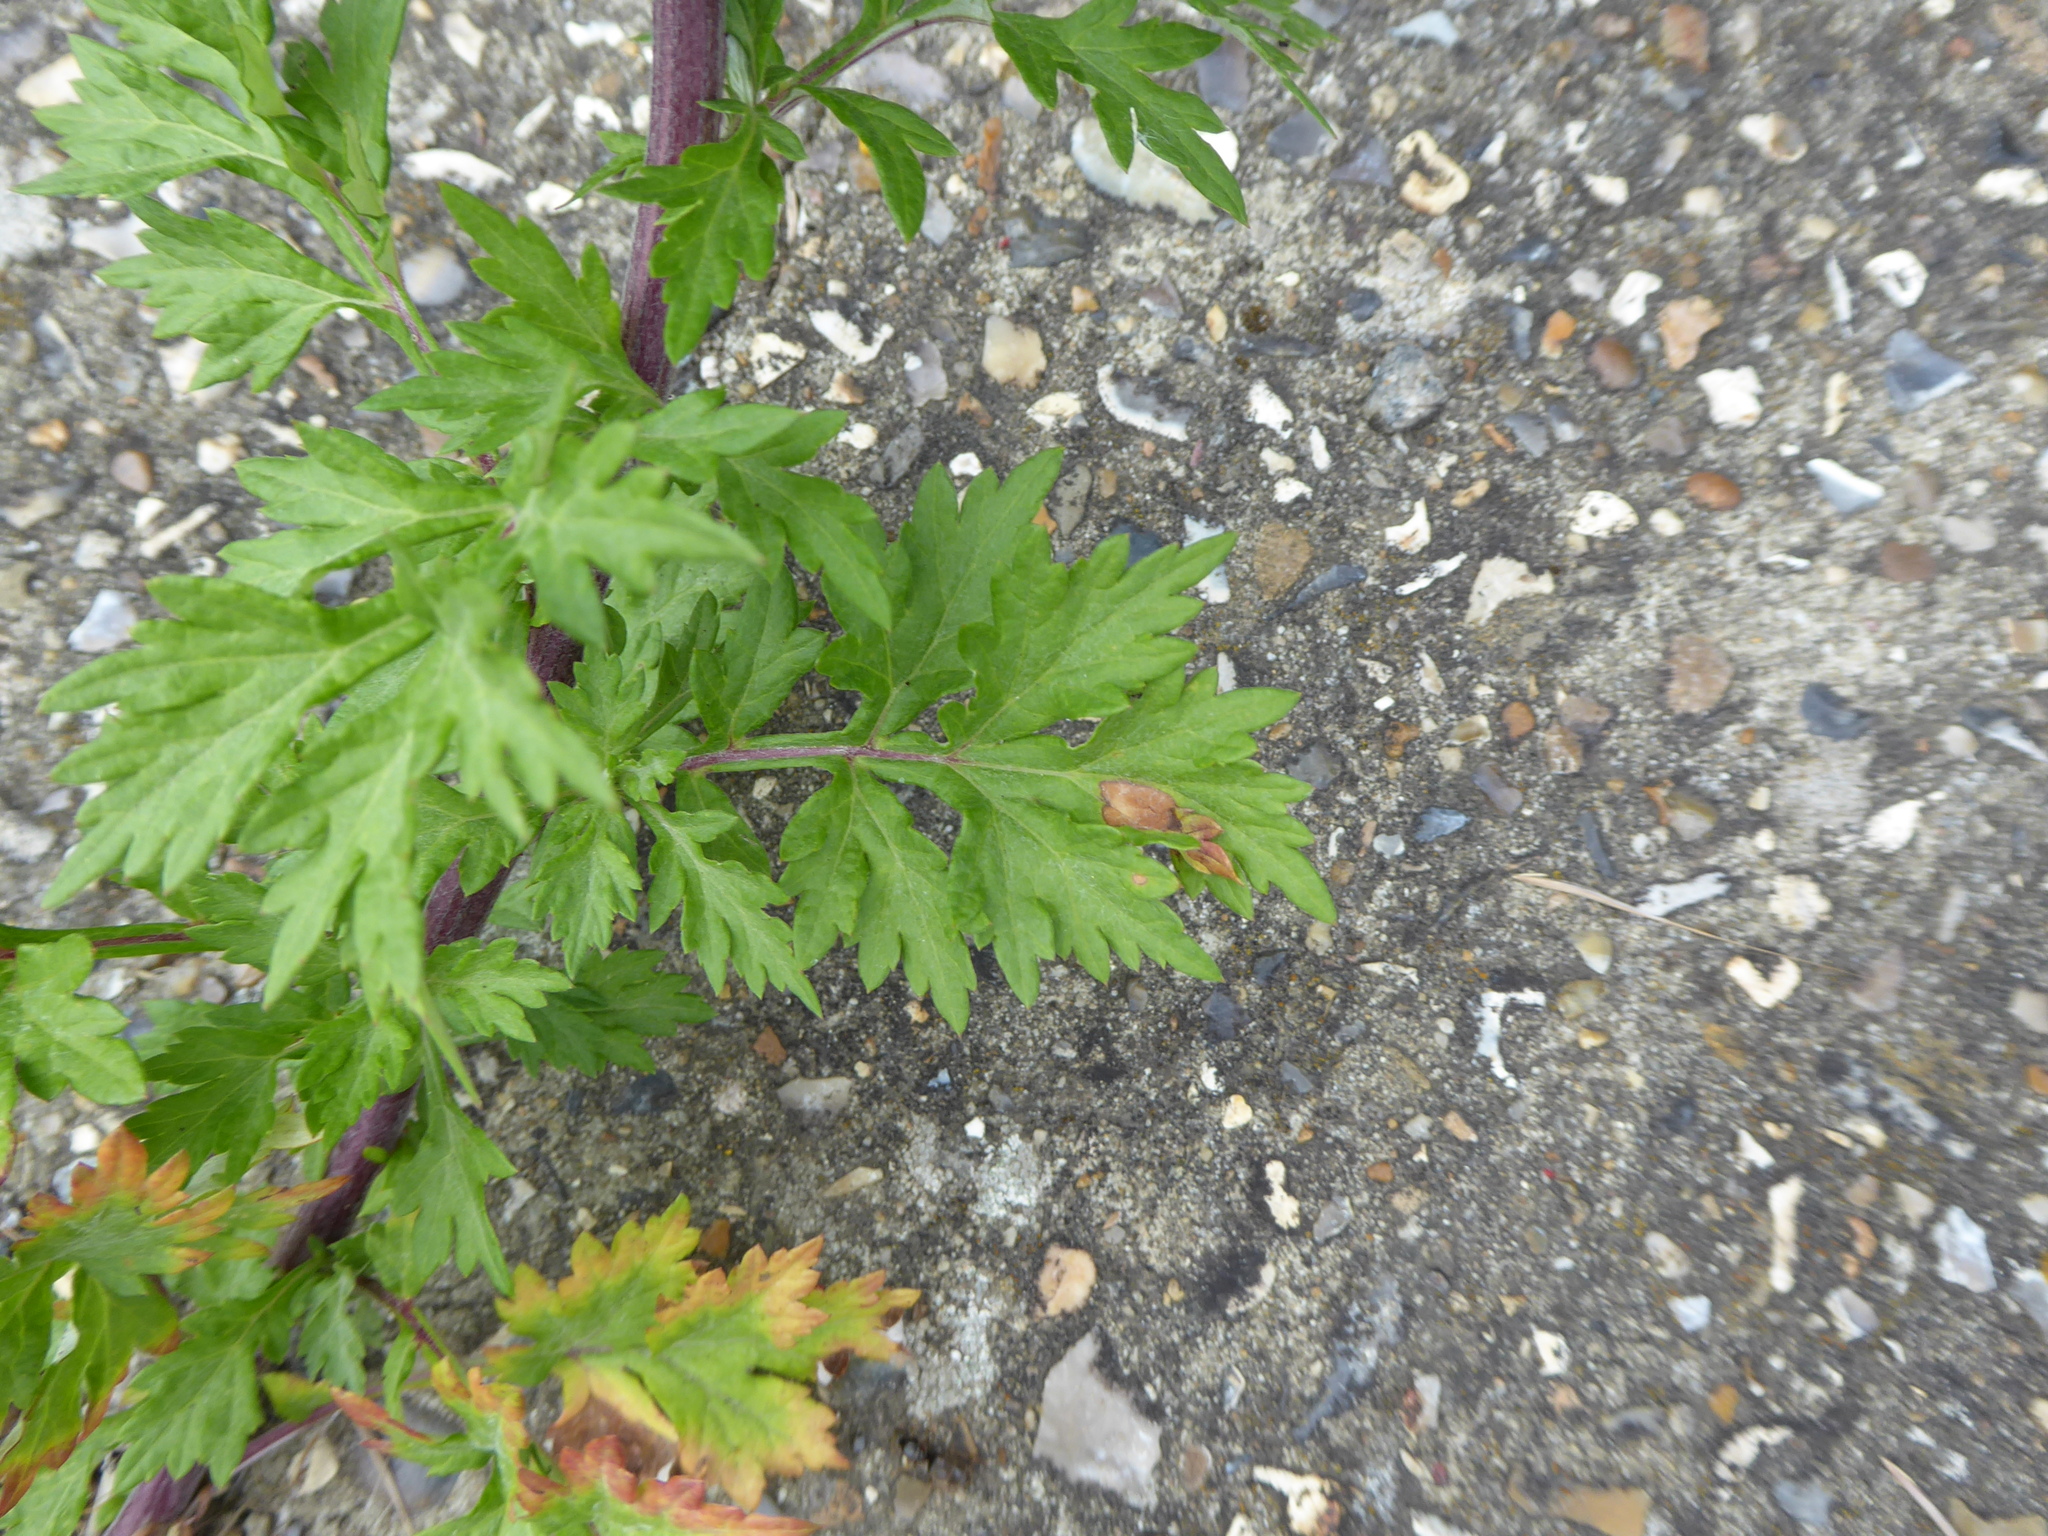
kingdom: Plantae
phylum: Tracheophyta
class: Magnoliopsida
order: Asterales
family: Asteraceae
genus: Artemisia
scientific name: Artemisia vulgaris
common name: Mugwort
